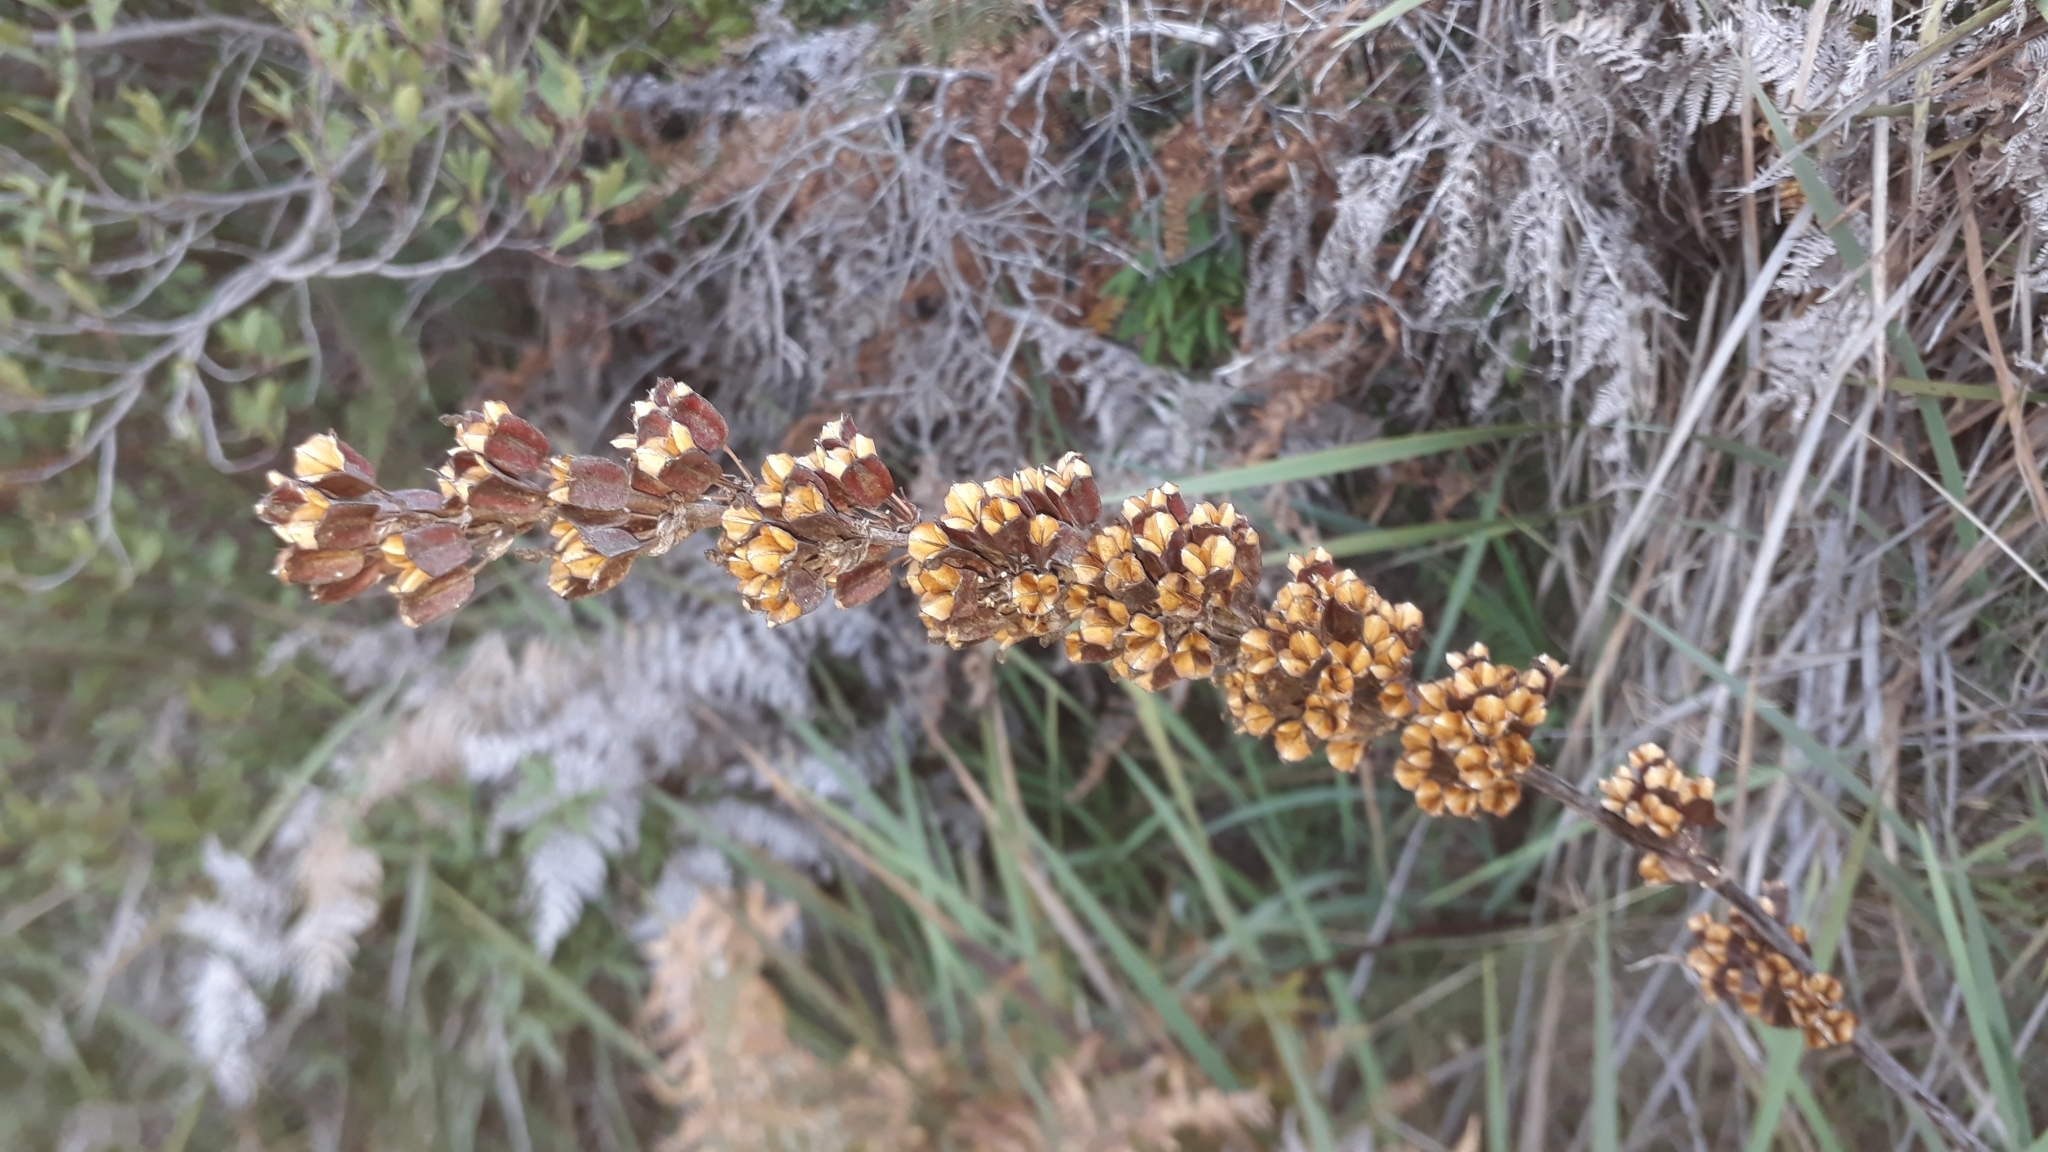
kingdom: Plantae
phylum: Tracheophyta
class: Liliopsida
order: Asparagales
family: Iridaceae
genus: Aristea
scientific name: Aristea capitata
